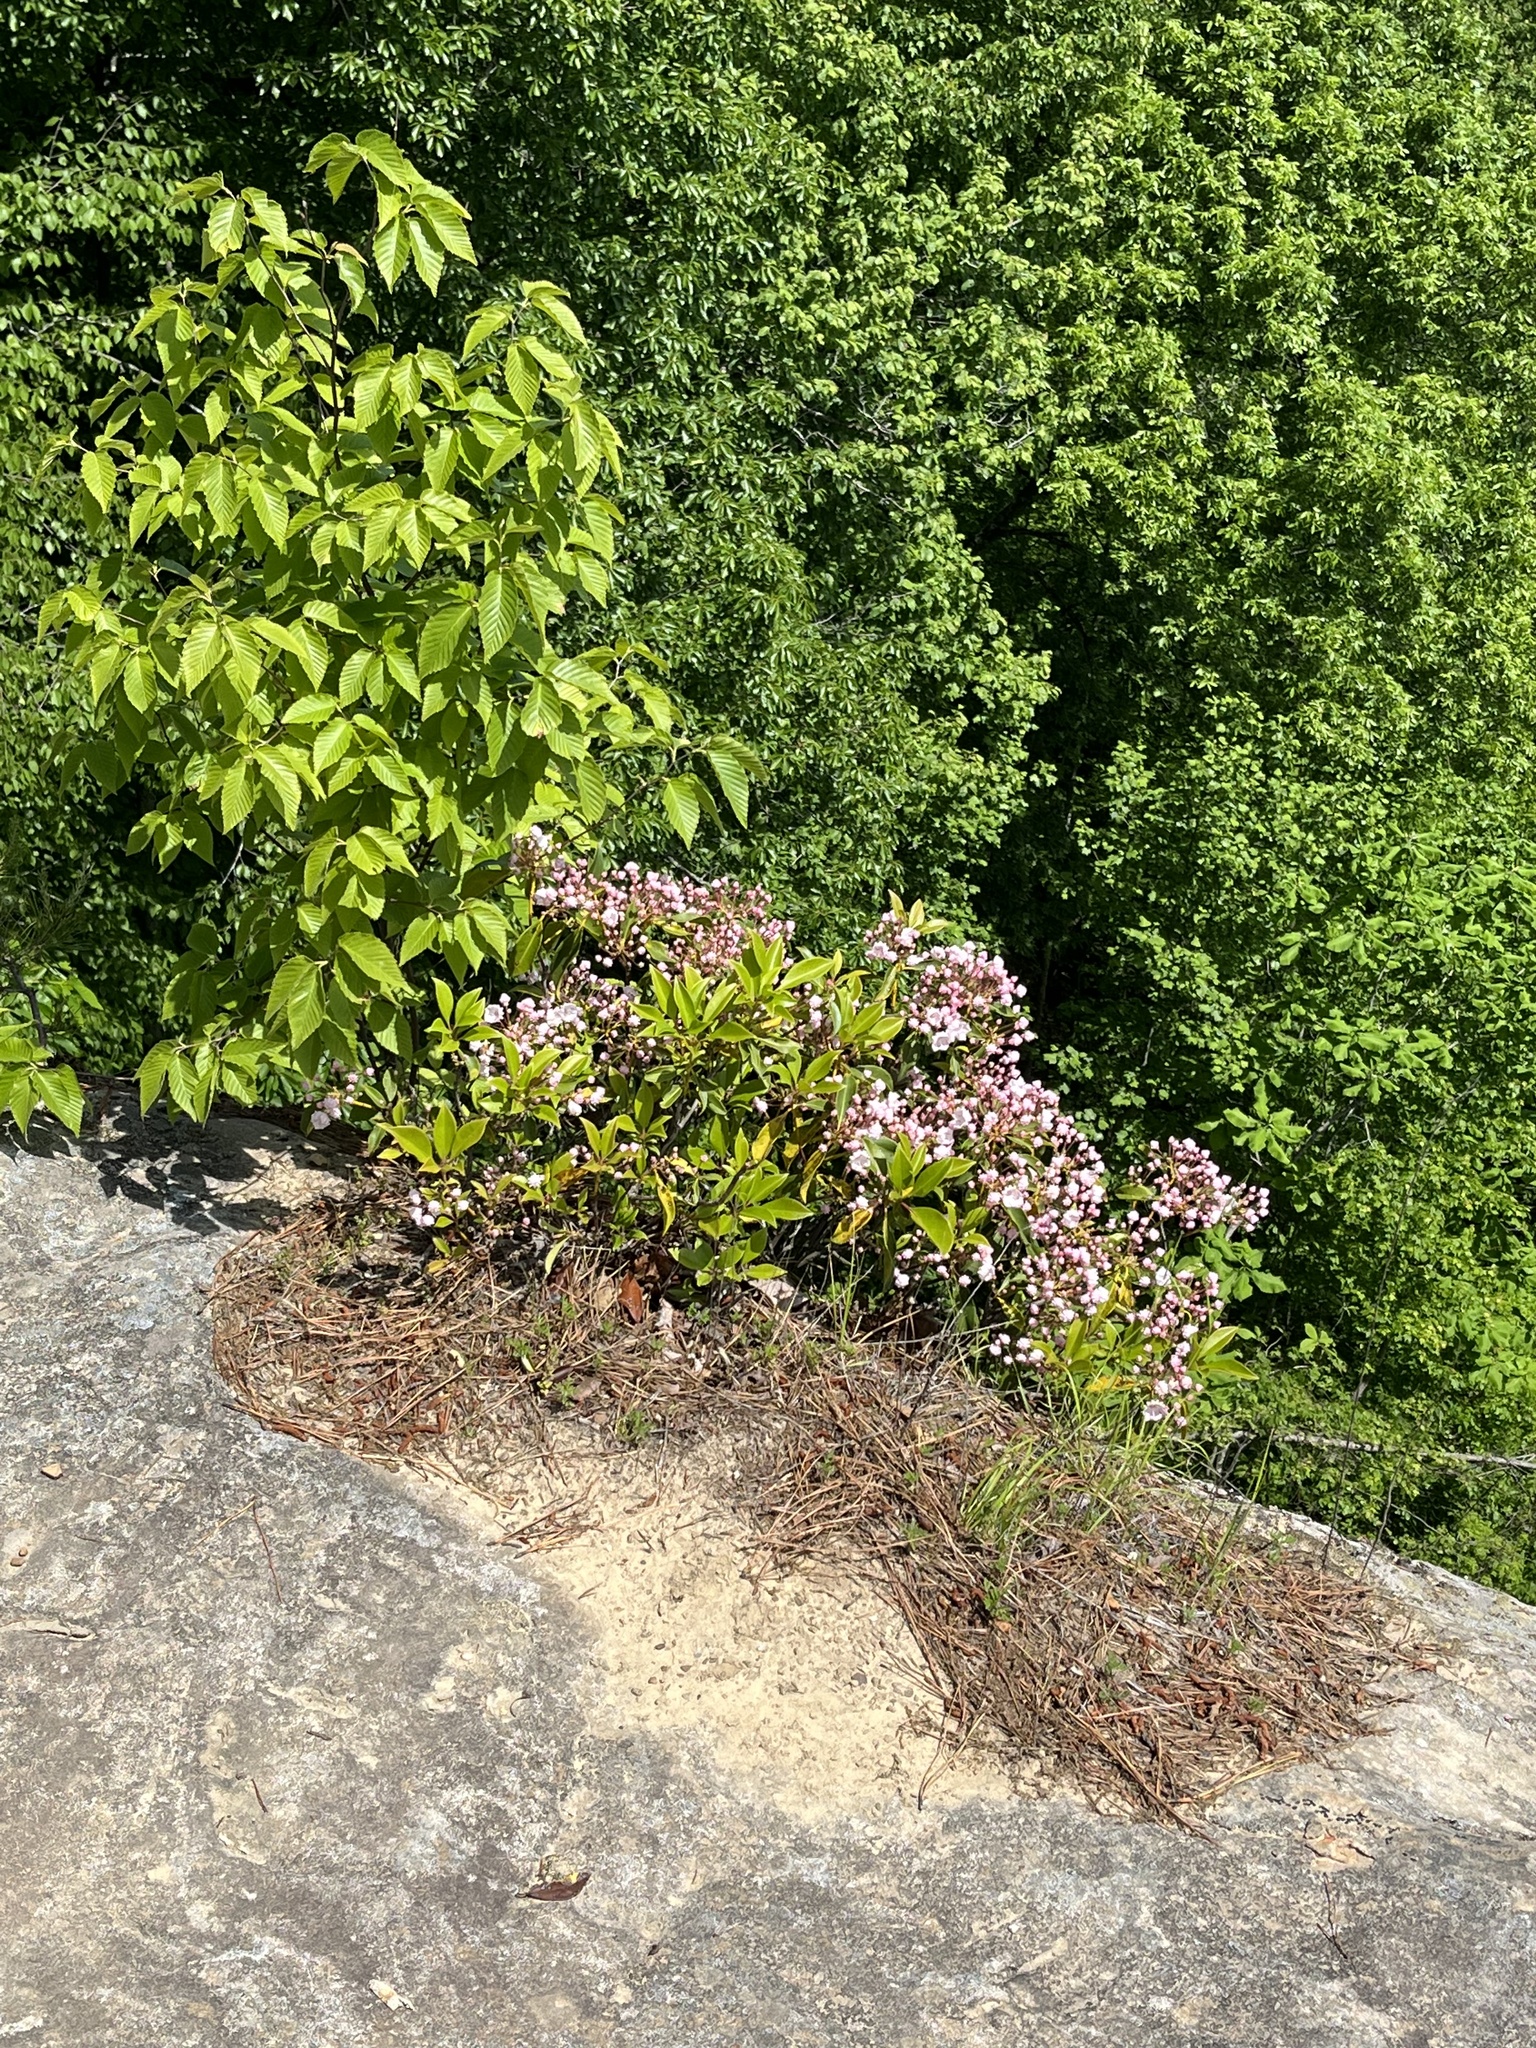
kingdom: Plantae
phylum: Tracheophyta
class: Magnoliopsida
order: Ericales
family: Ericaceae
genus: Kalmia
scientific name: Kalmia latifolia
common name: Mountain-laurel
